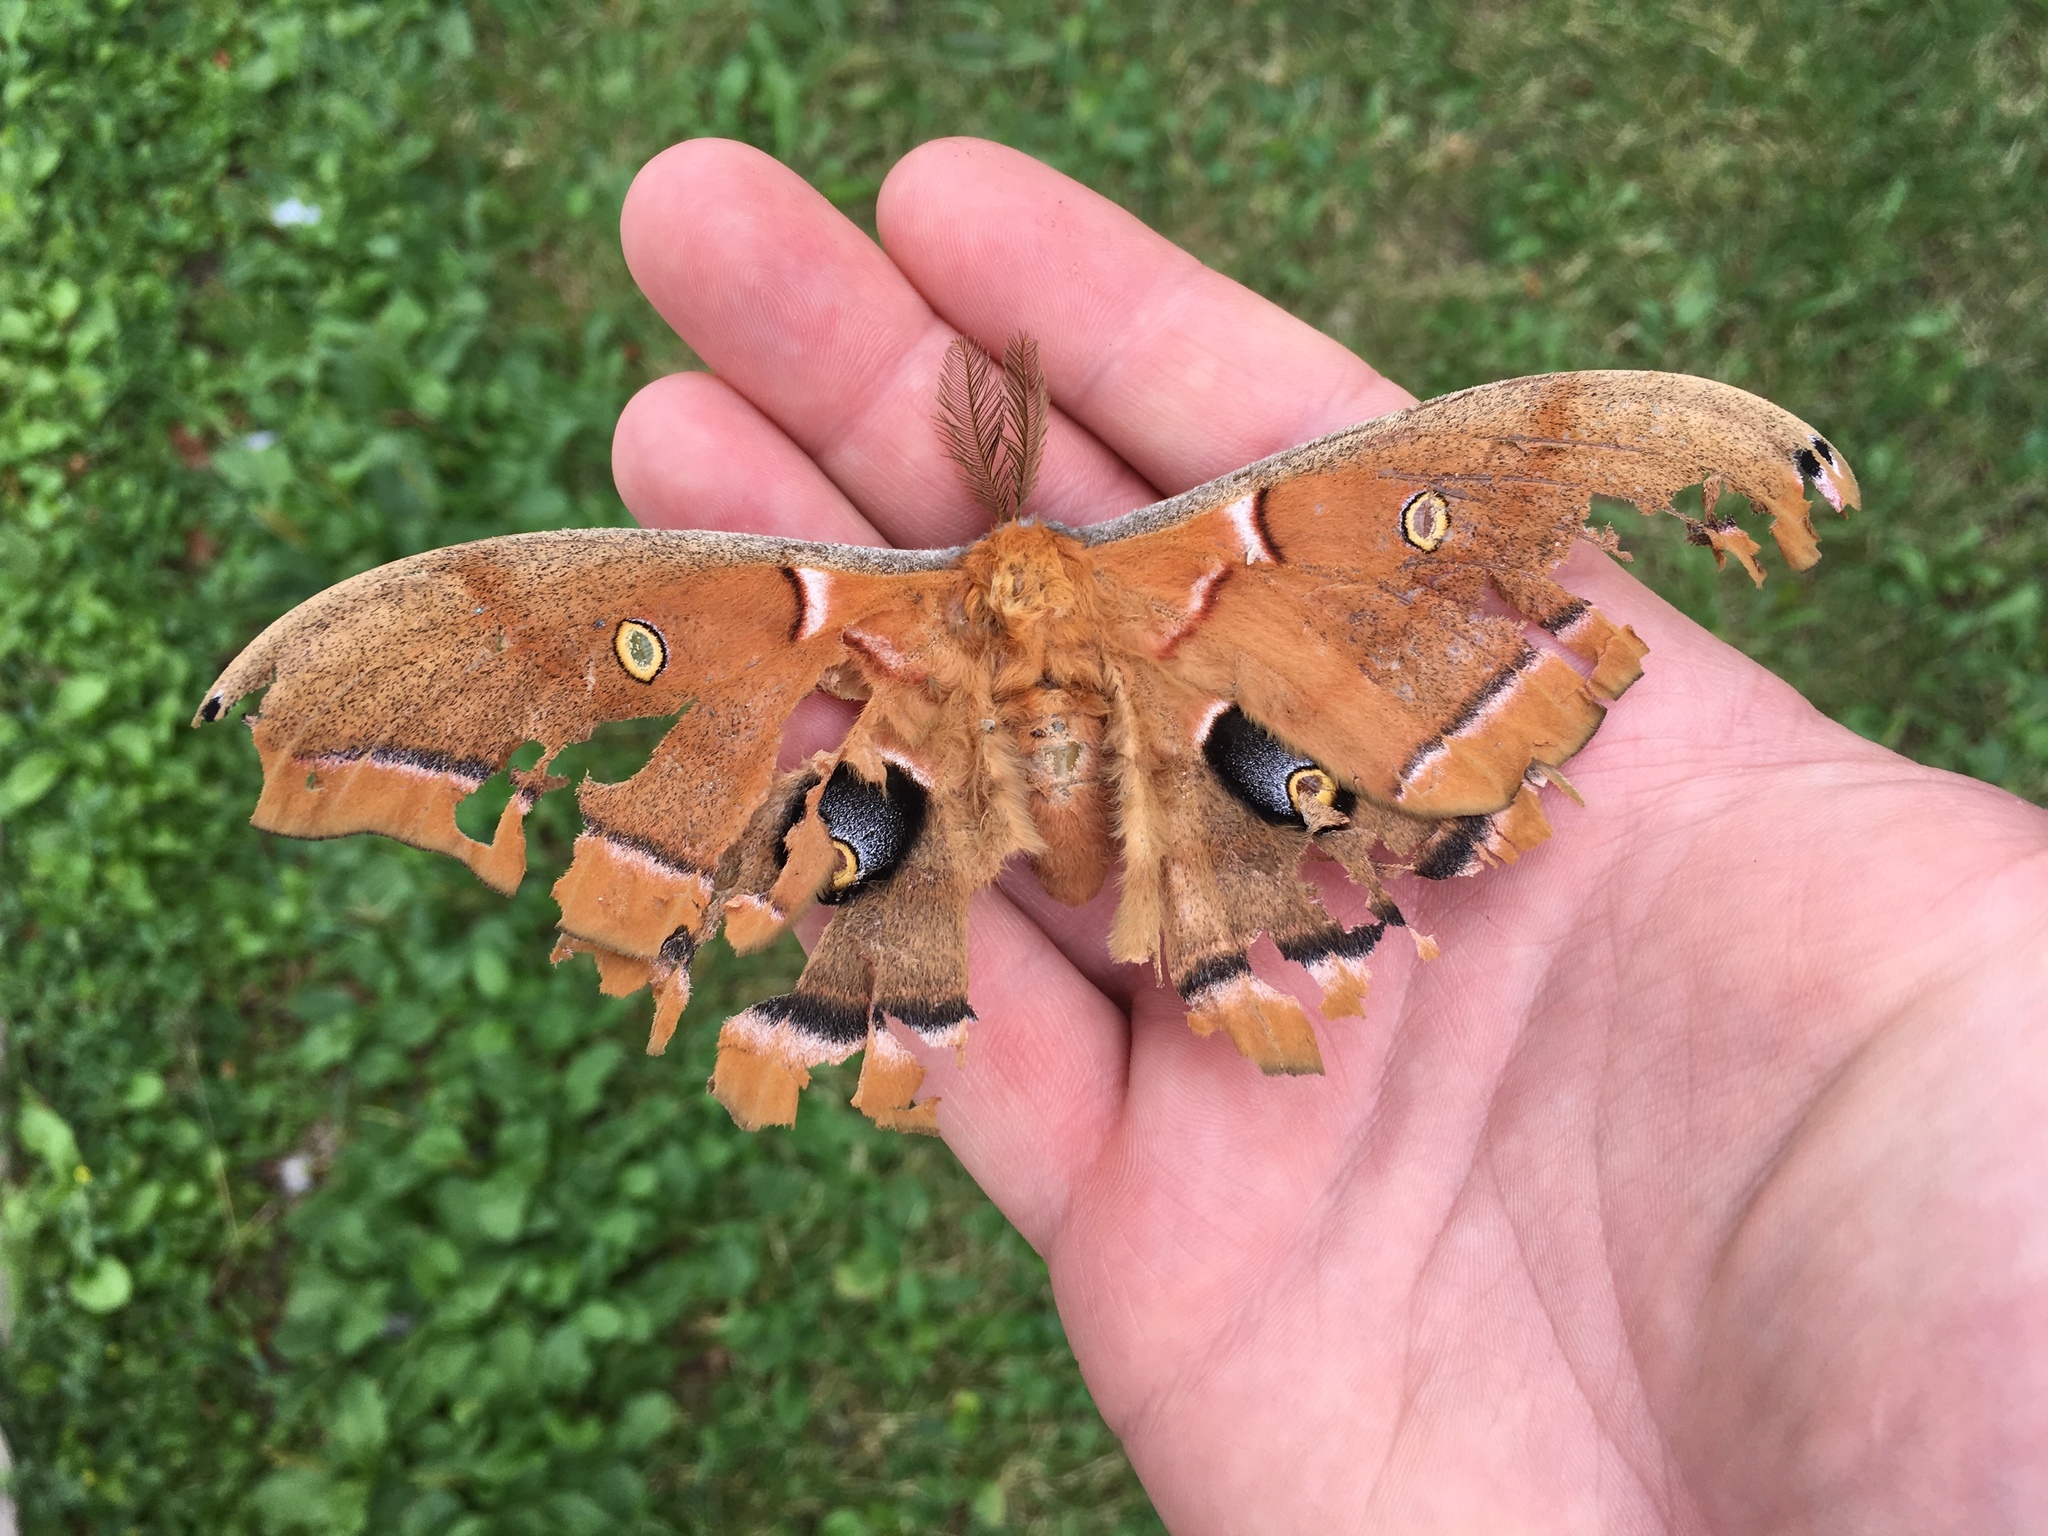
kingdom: Animalia
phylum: Arthropoda
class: Insecta
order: Lepidoptera
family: Saturniidae
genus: Antheraea
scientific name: Antheraea polyphemus
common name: Polyphemus moth
